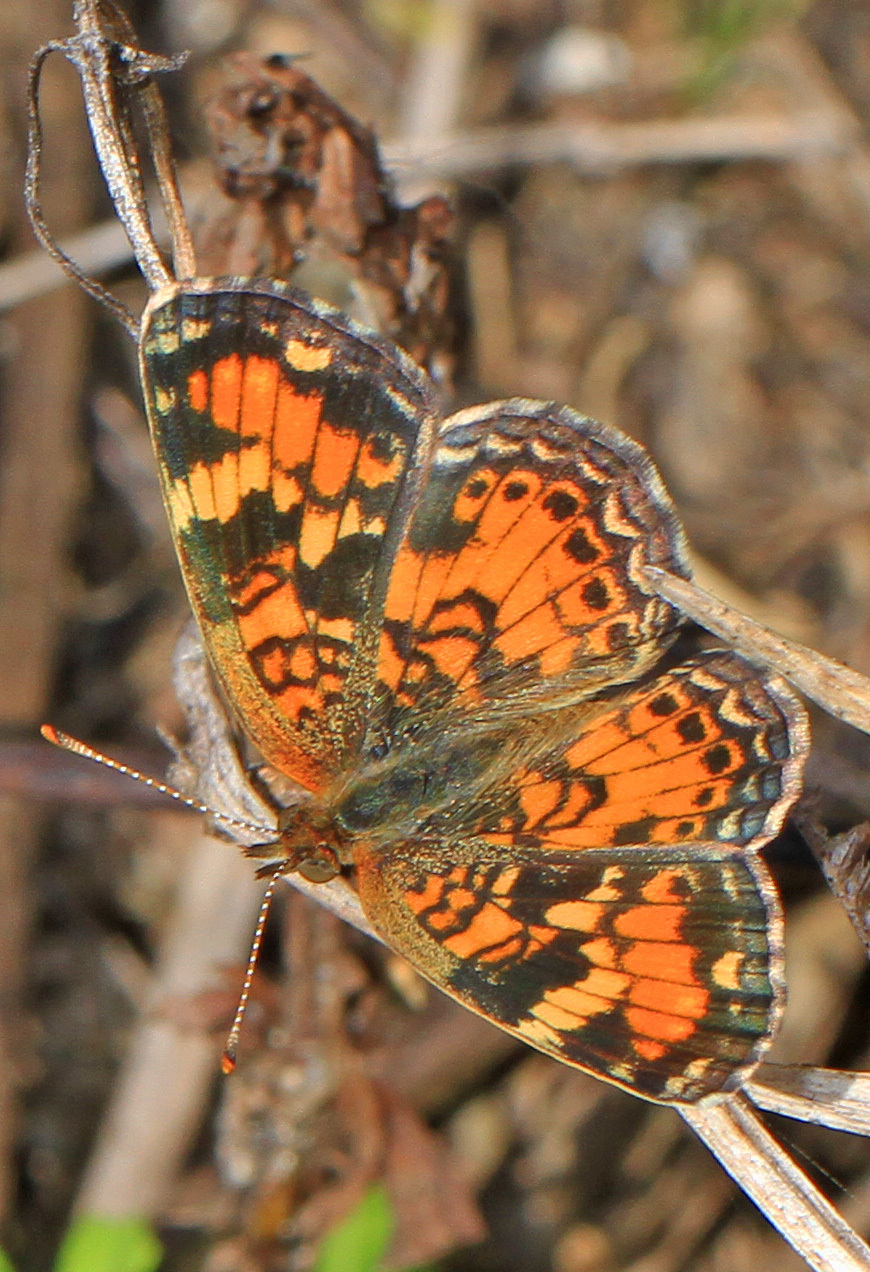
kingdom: Animalia
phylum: Arthropoda
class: Insecta
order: Lepidoptera
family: Nymphalidae
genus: Phyciodes
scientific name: Phyciodes phaon
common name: Phaon crescent
